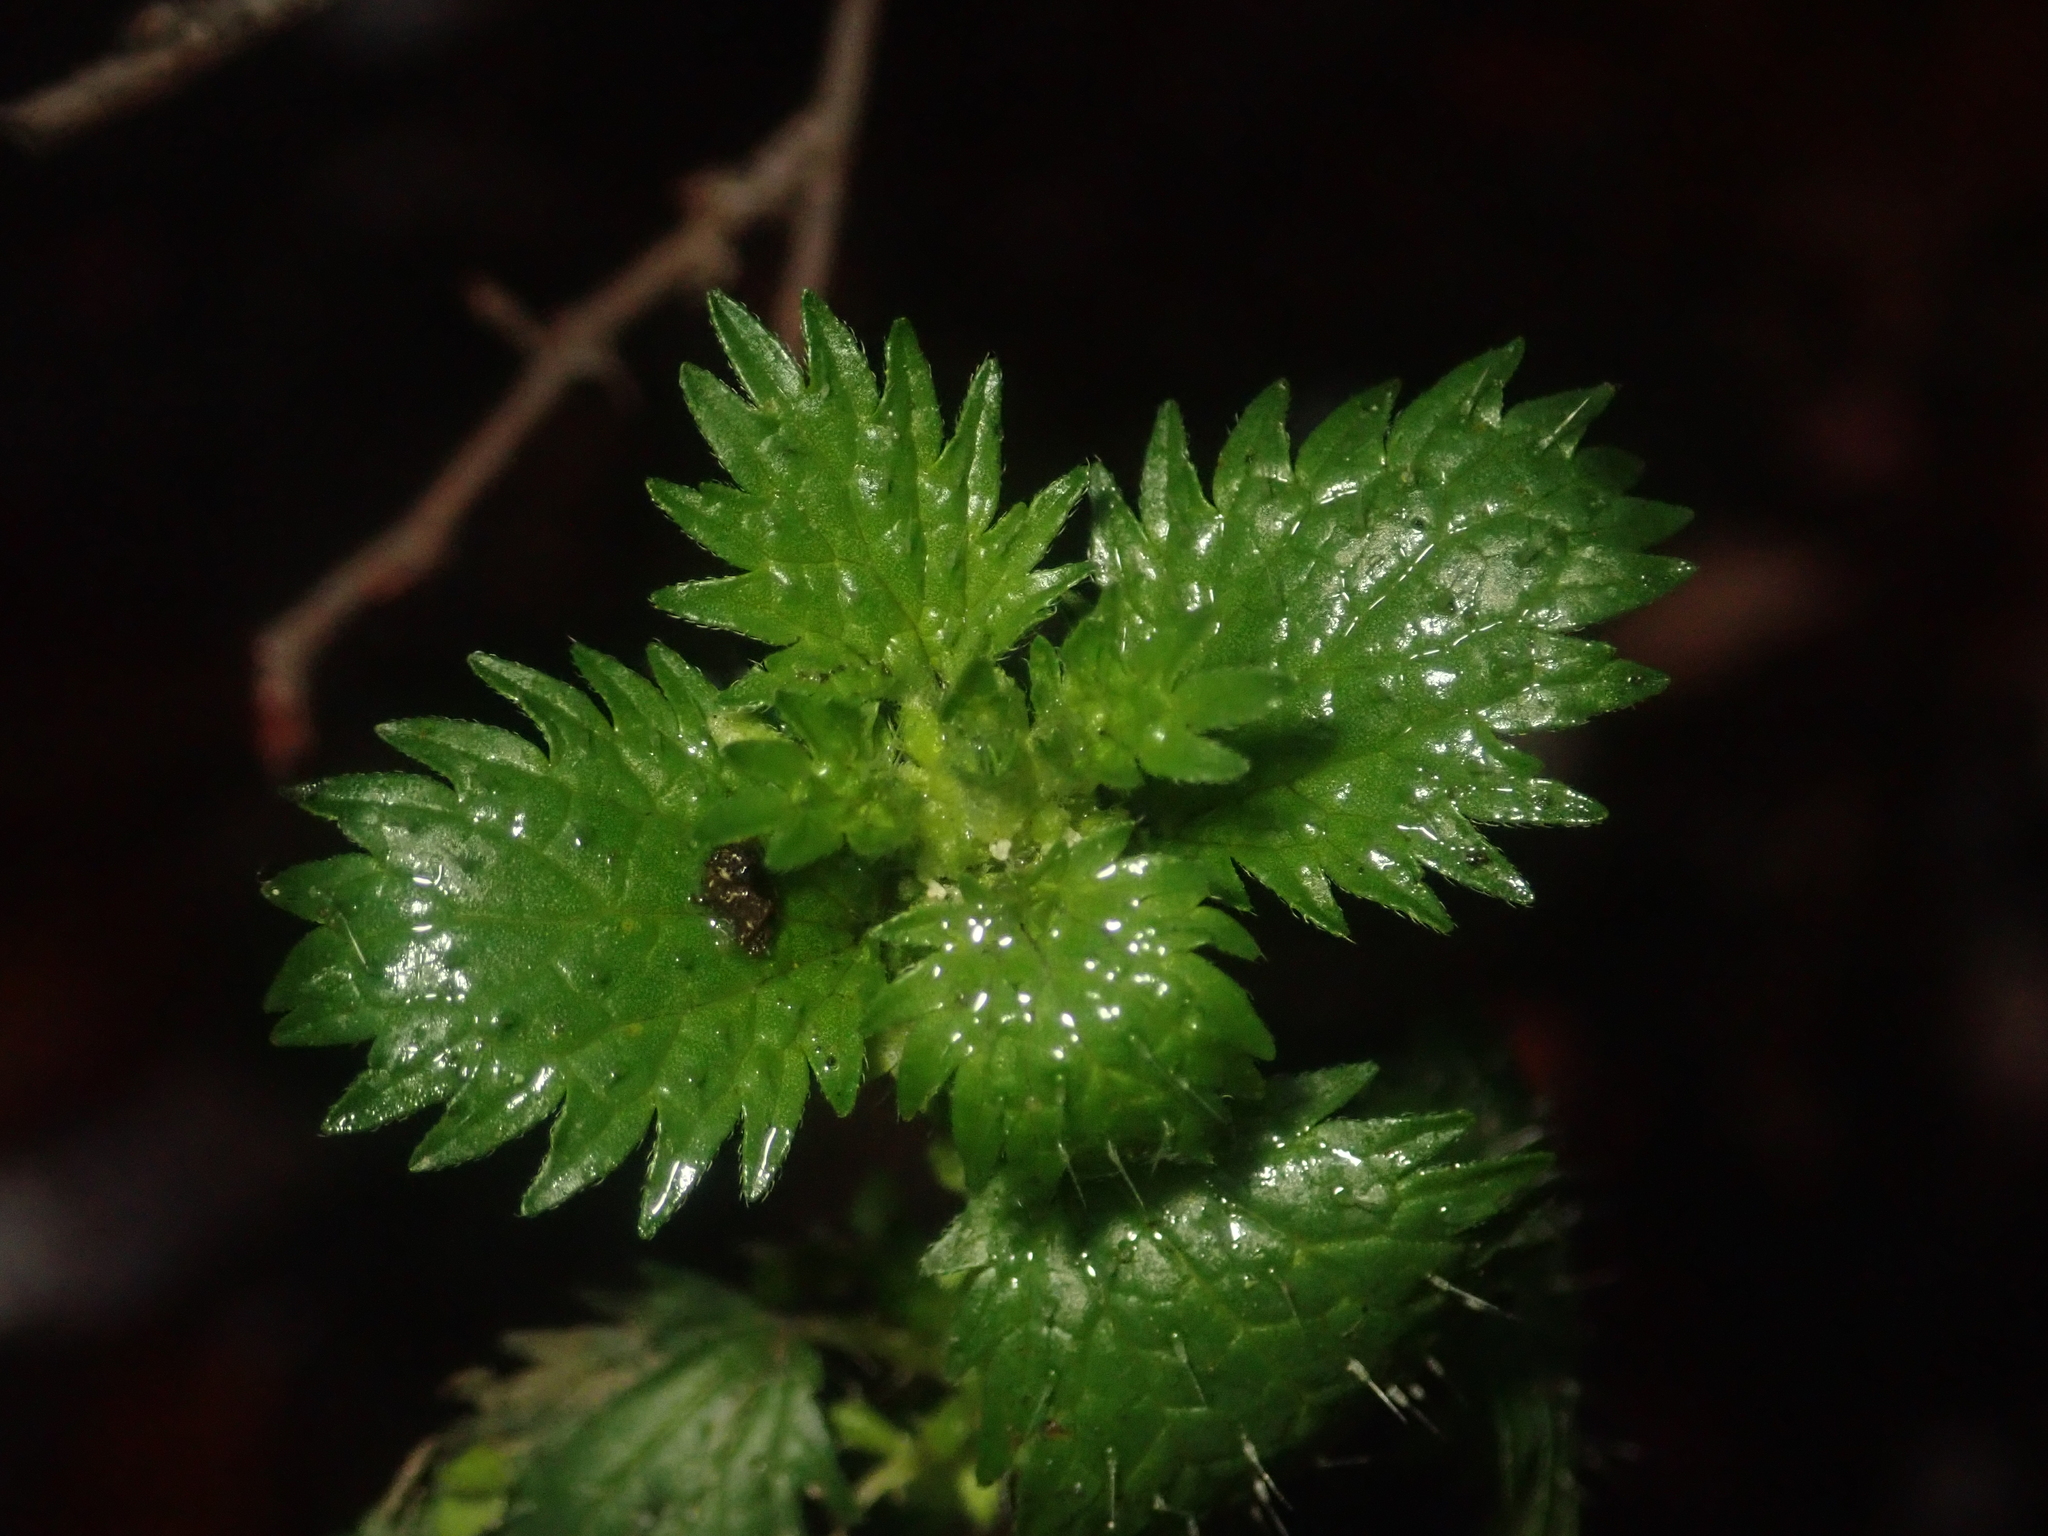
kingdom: Plantae
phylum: Tracheophyta
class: Magnoliopsida
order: Rosales
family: Urticaceae
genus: Urtica
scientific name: Urtica urens
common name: Dwarf nettle
